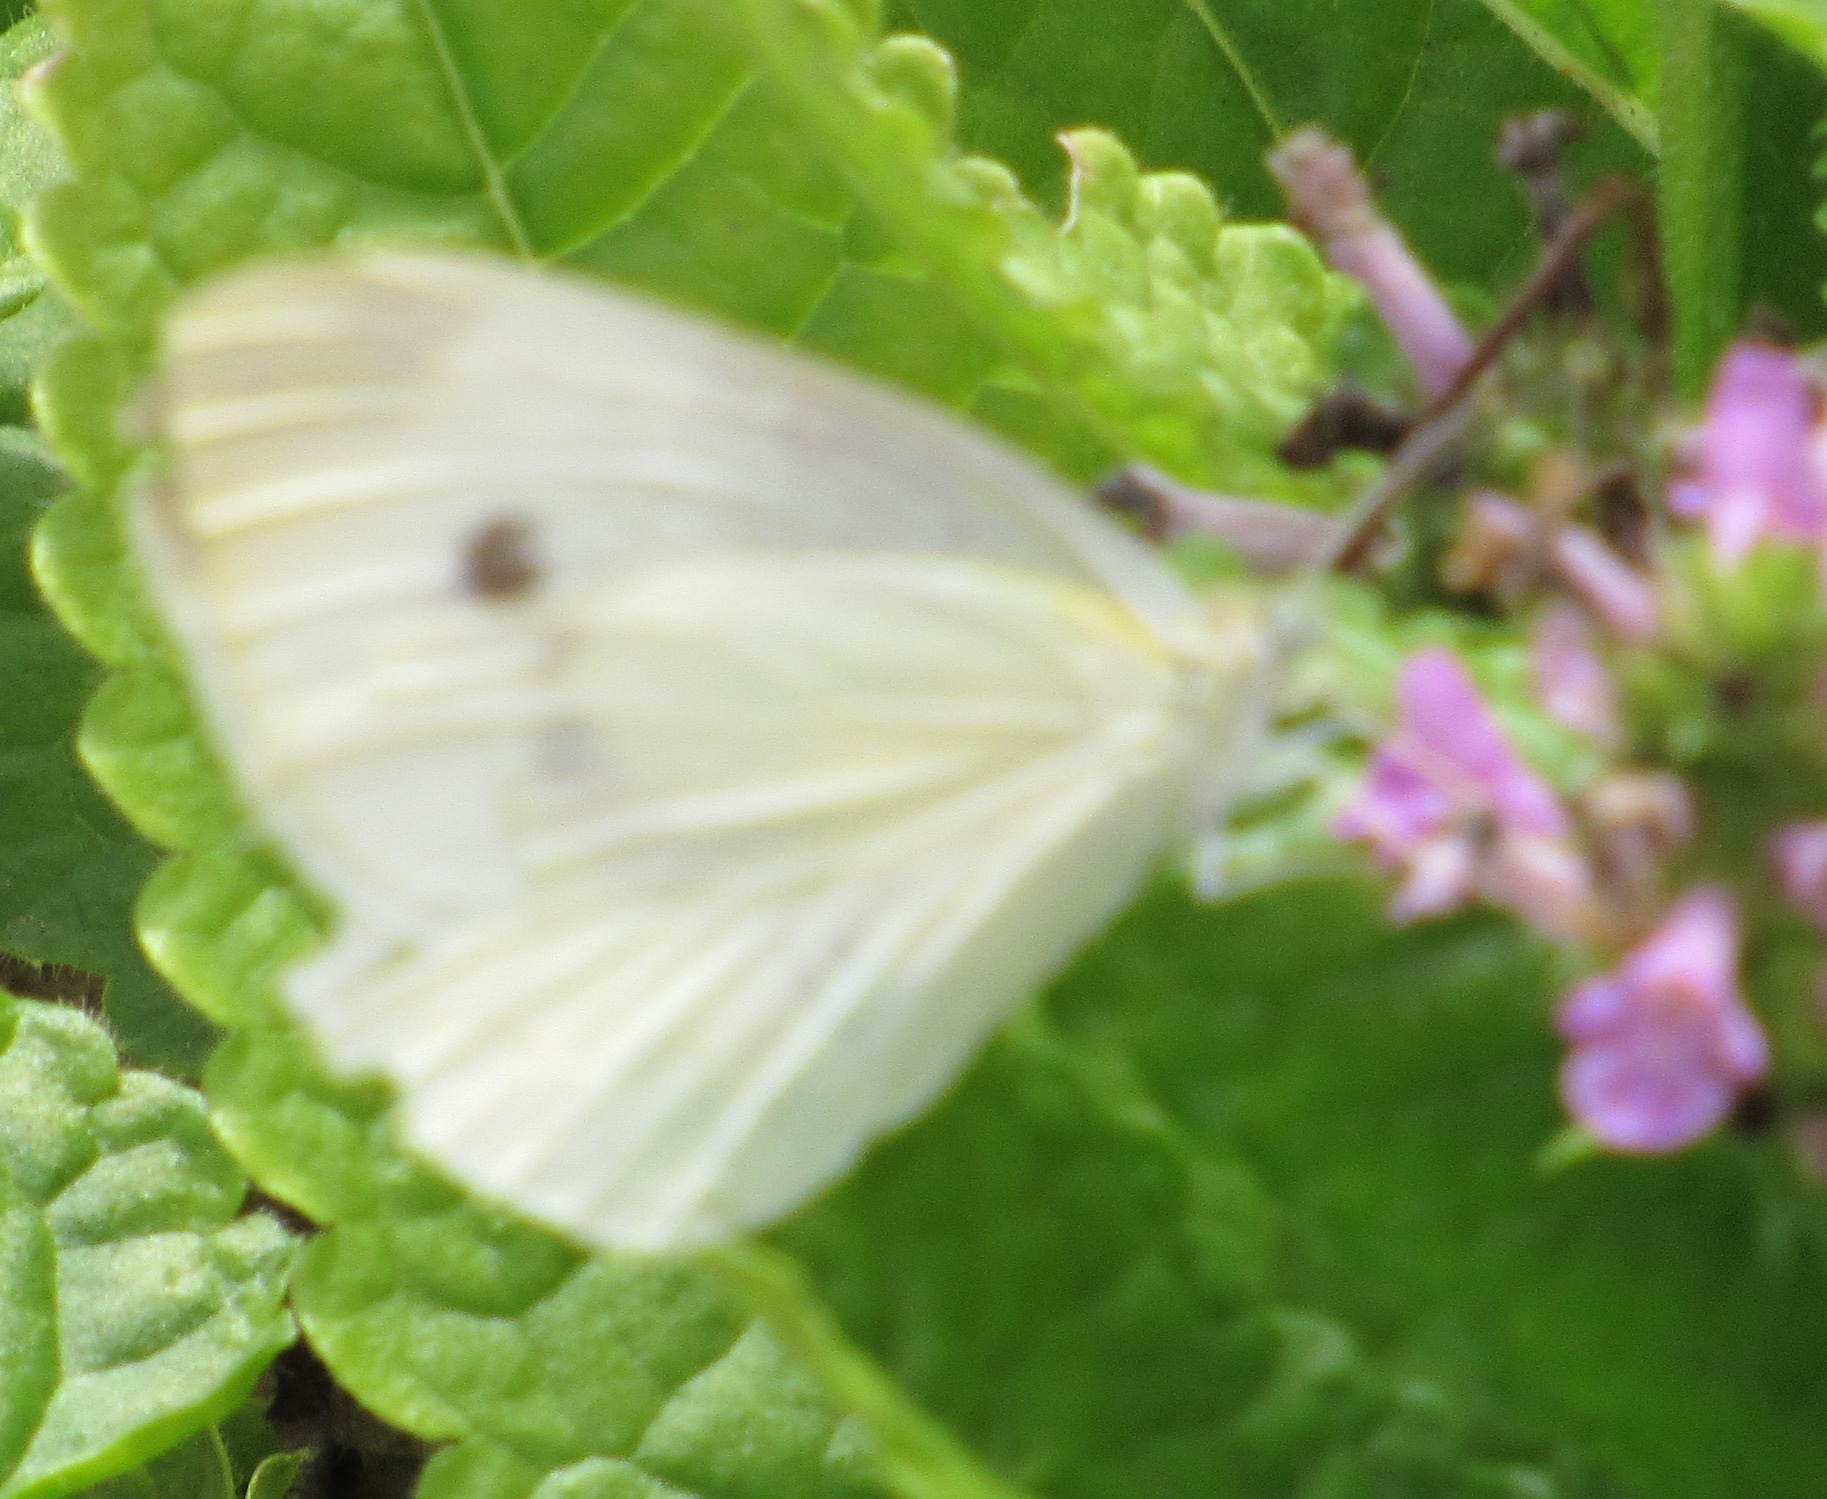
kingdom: Animalia
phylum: Arthropoda
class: Insecta
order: Lepidoptera
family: Pieridae
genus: Pieris
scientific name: Pieris rapae
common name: Small white
